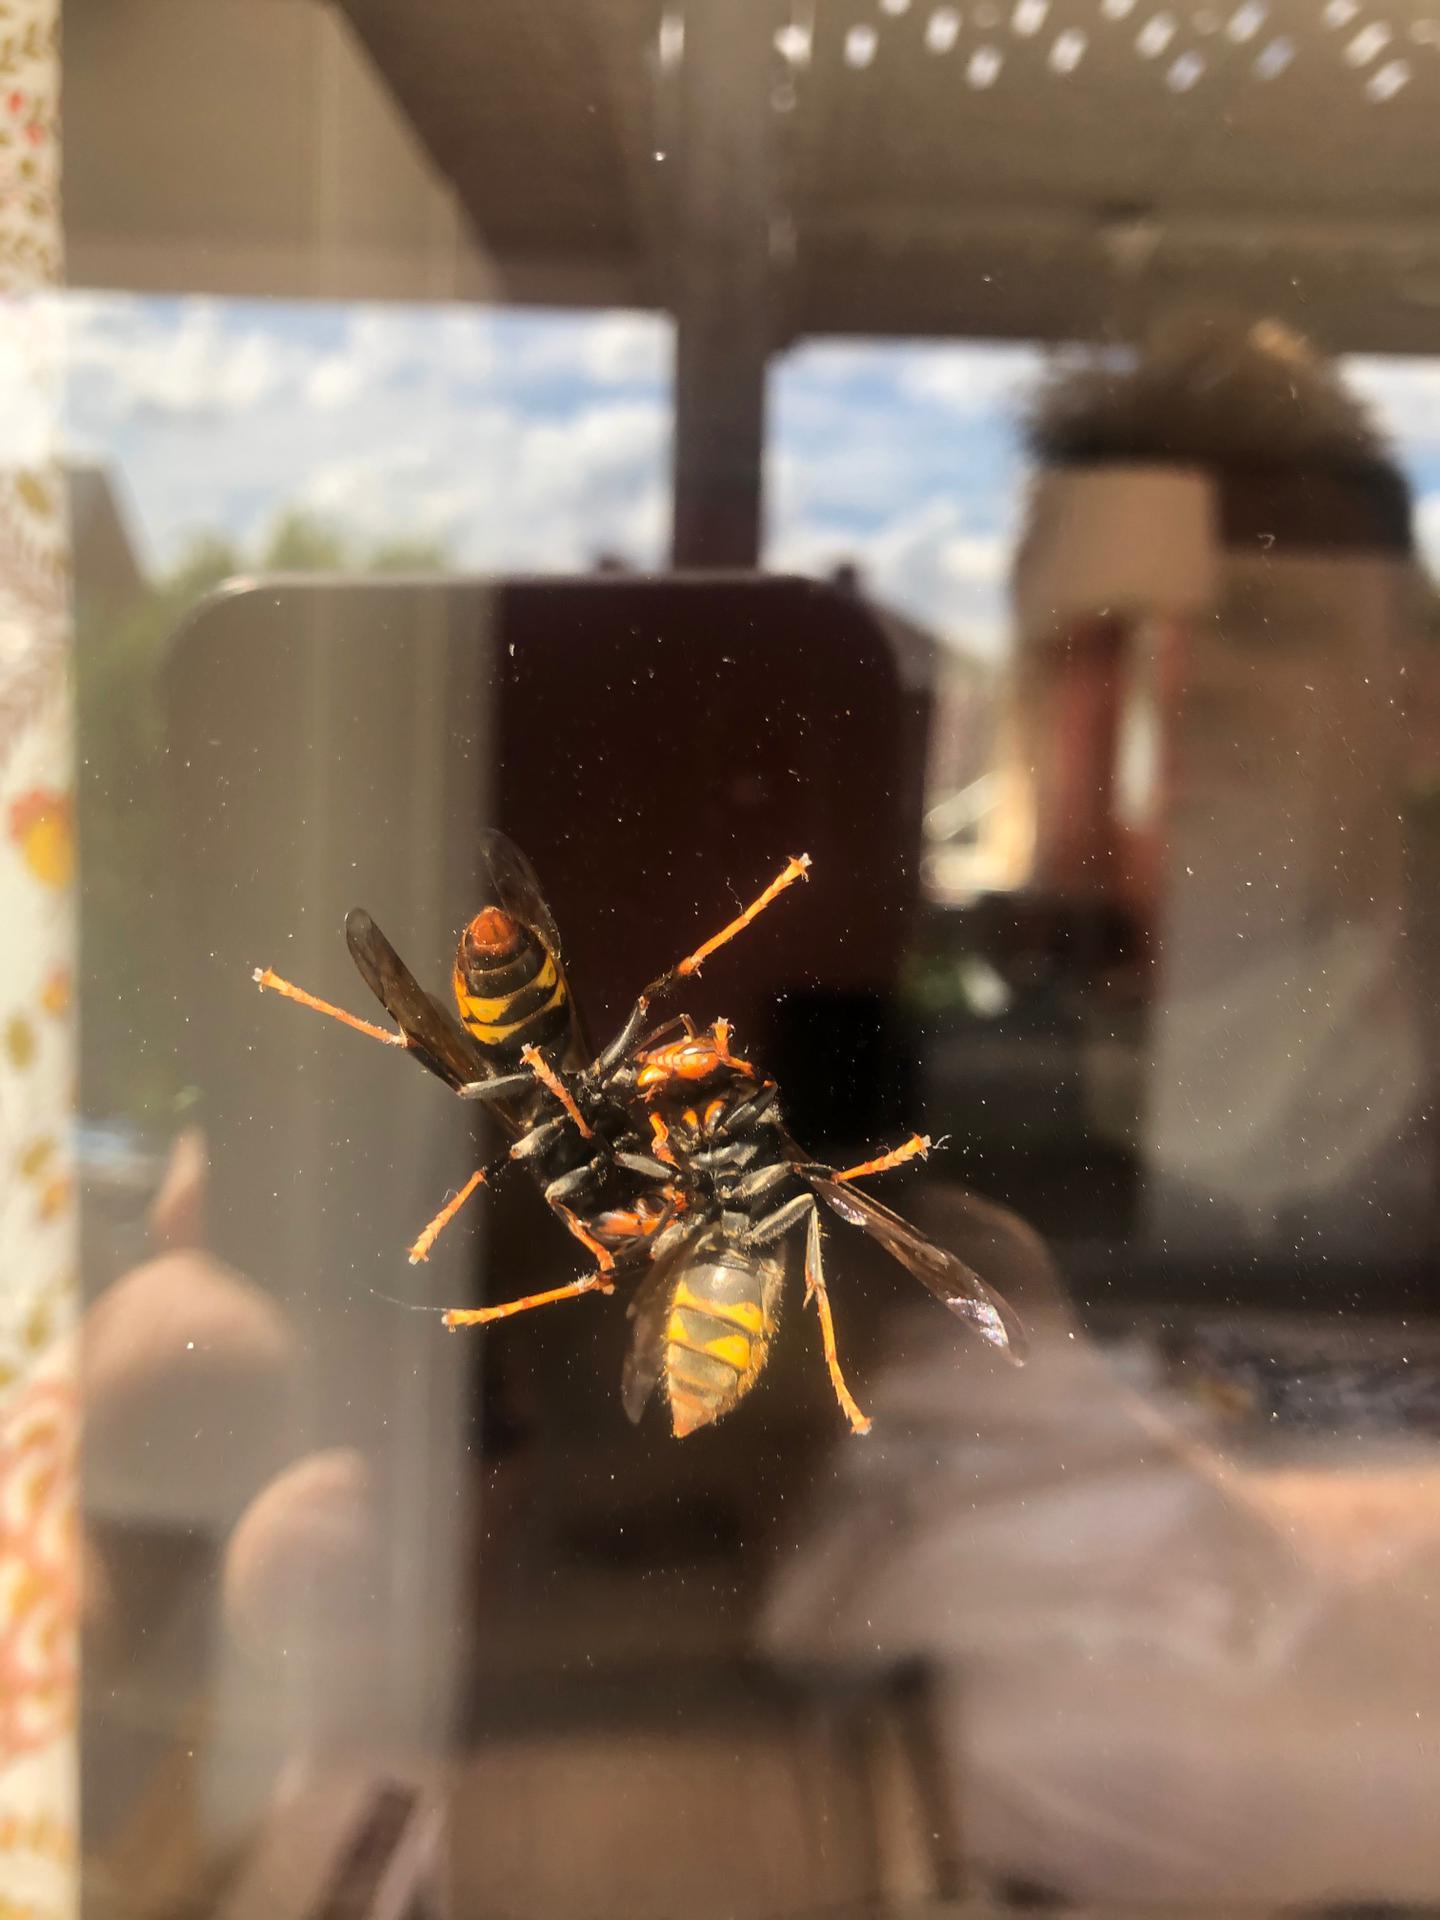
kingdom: Animalia
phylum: Arthropoda
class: Insecta
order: Hymenoptera
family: Vespidae
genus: Vespa
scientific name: Vespa velutina
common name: Asian hornet
